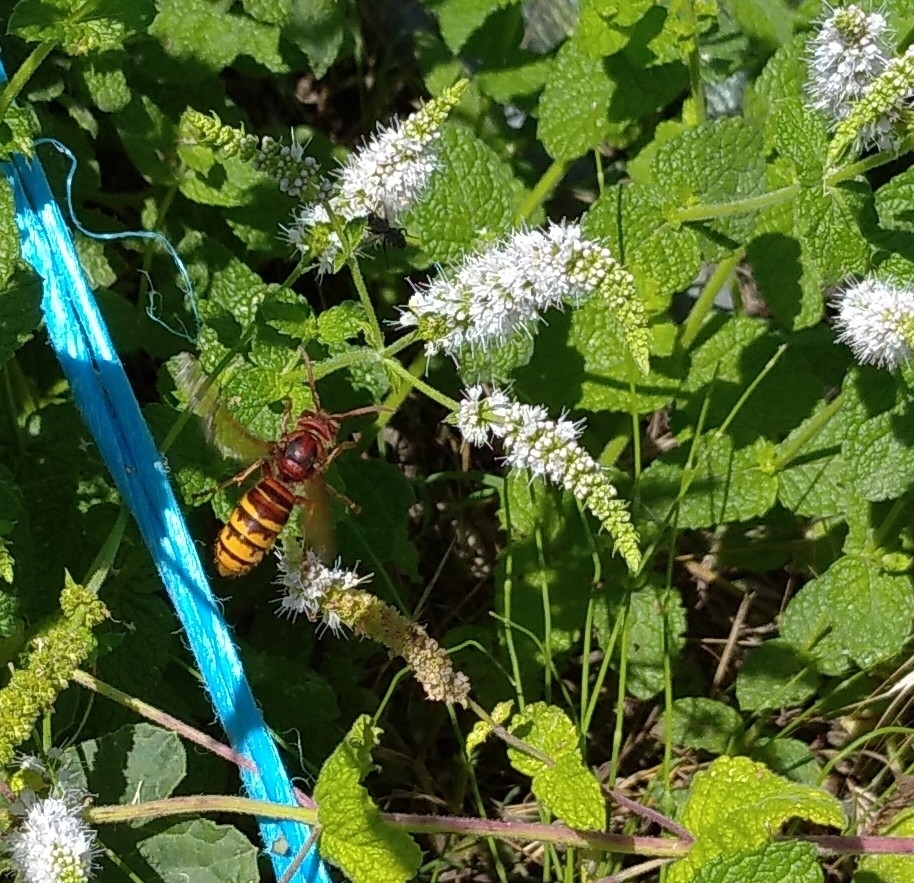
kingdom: Animalia
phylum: Arthropoda
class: Insecta
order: Hymenoptera
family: Vespidae
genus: Vespa
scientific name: Vespa crabro
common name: Hornet
